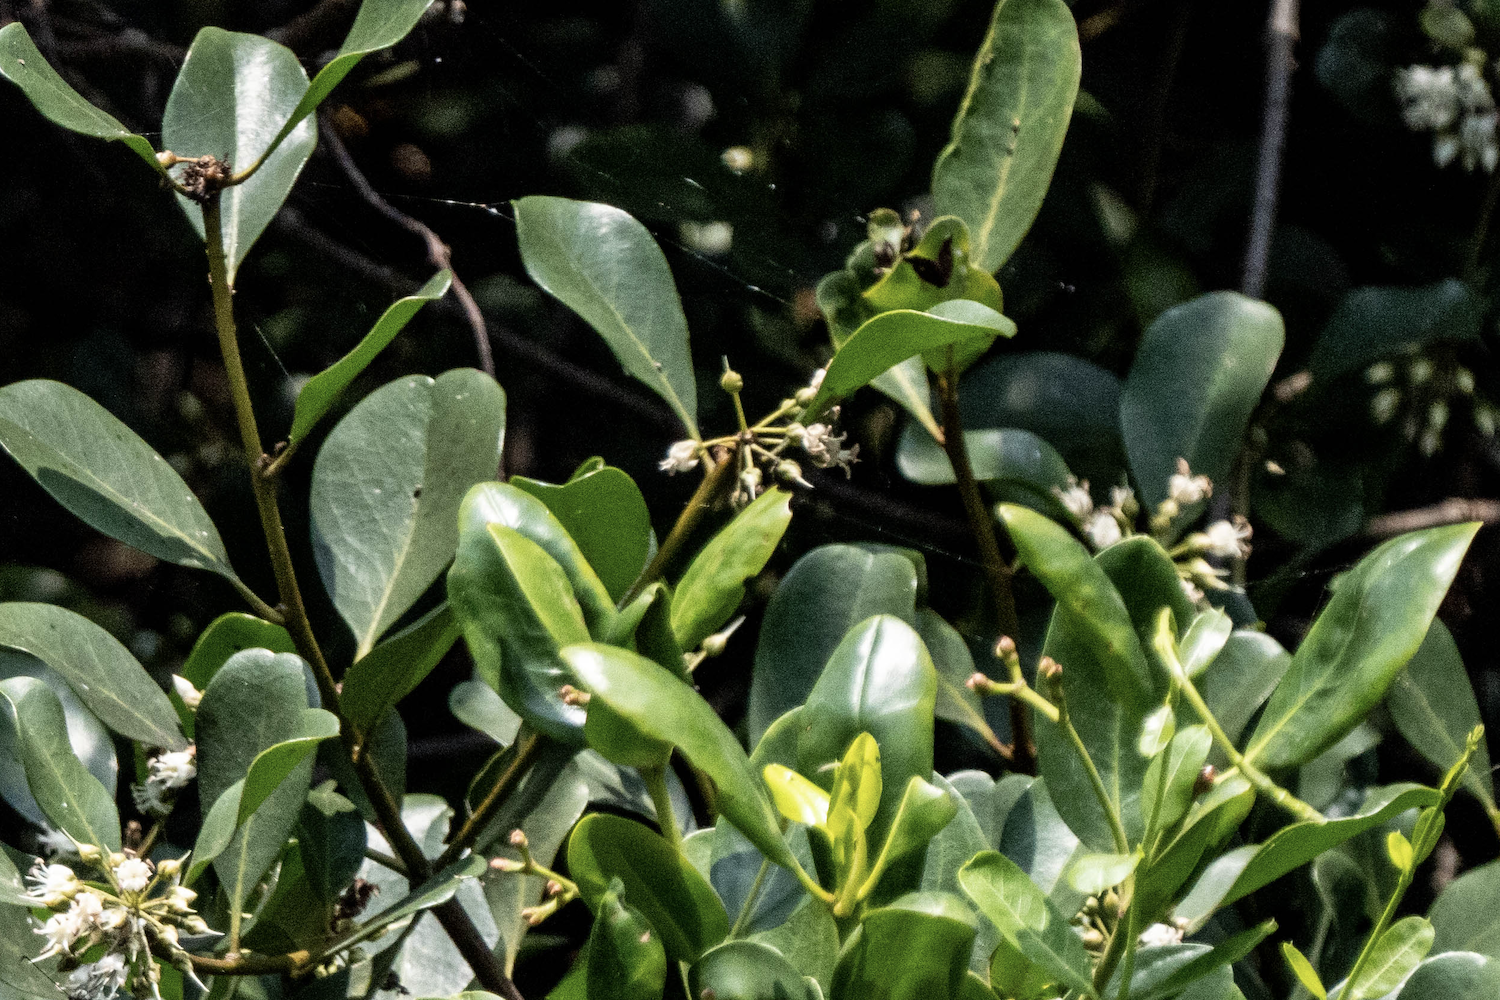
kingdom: Plantae
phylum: Tracheophyta
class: Magnoliopsida
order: Ericales
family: Primulaceae
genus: Aegiceras
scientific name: Aegiceras corniculatum
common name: River mangrove
